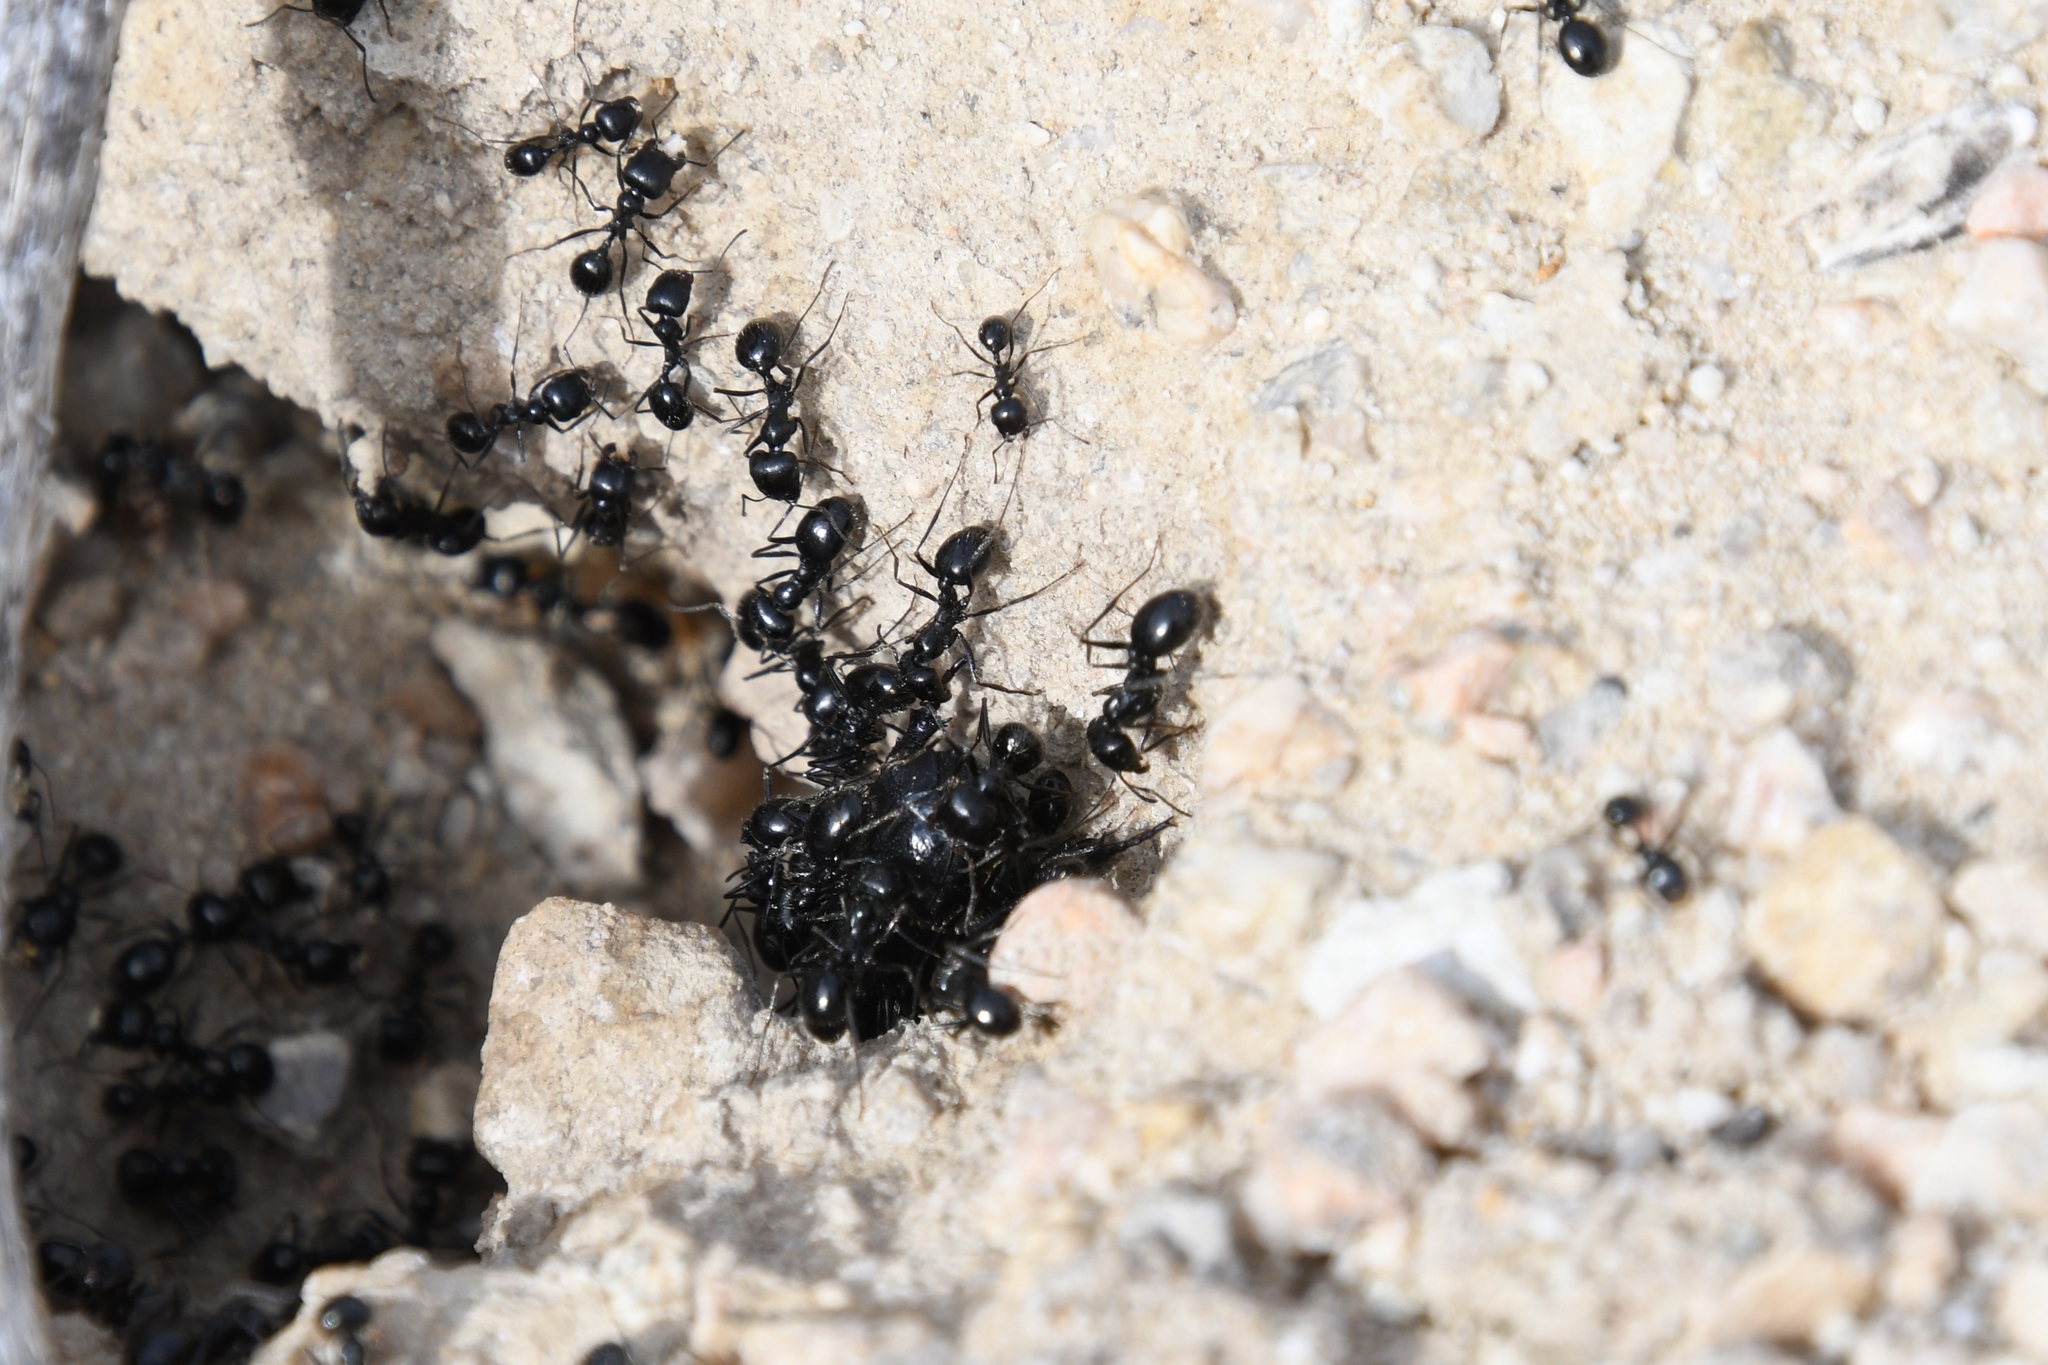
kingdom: Animalia
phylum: Arthropoda
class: Insecta
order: Hymenoptera
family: Formicidae
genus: Messor
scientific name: Messor pergandei
